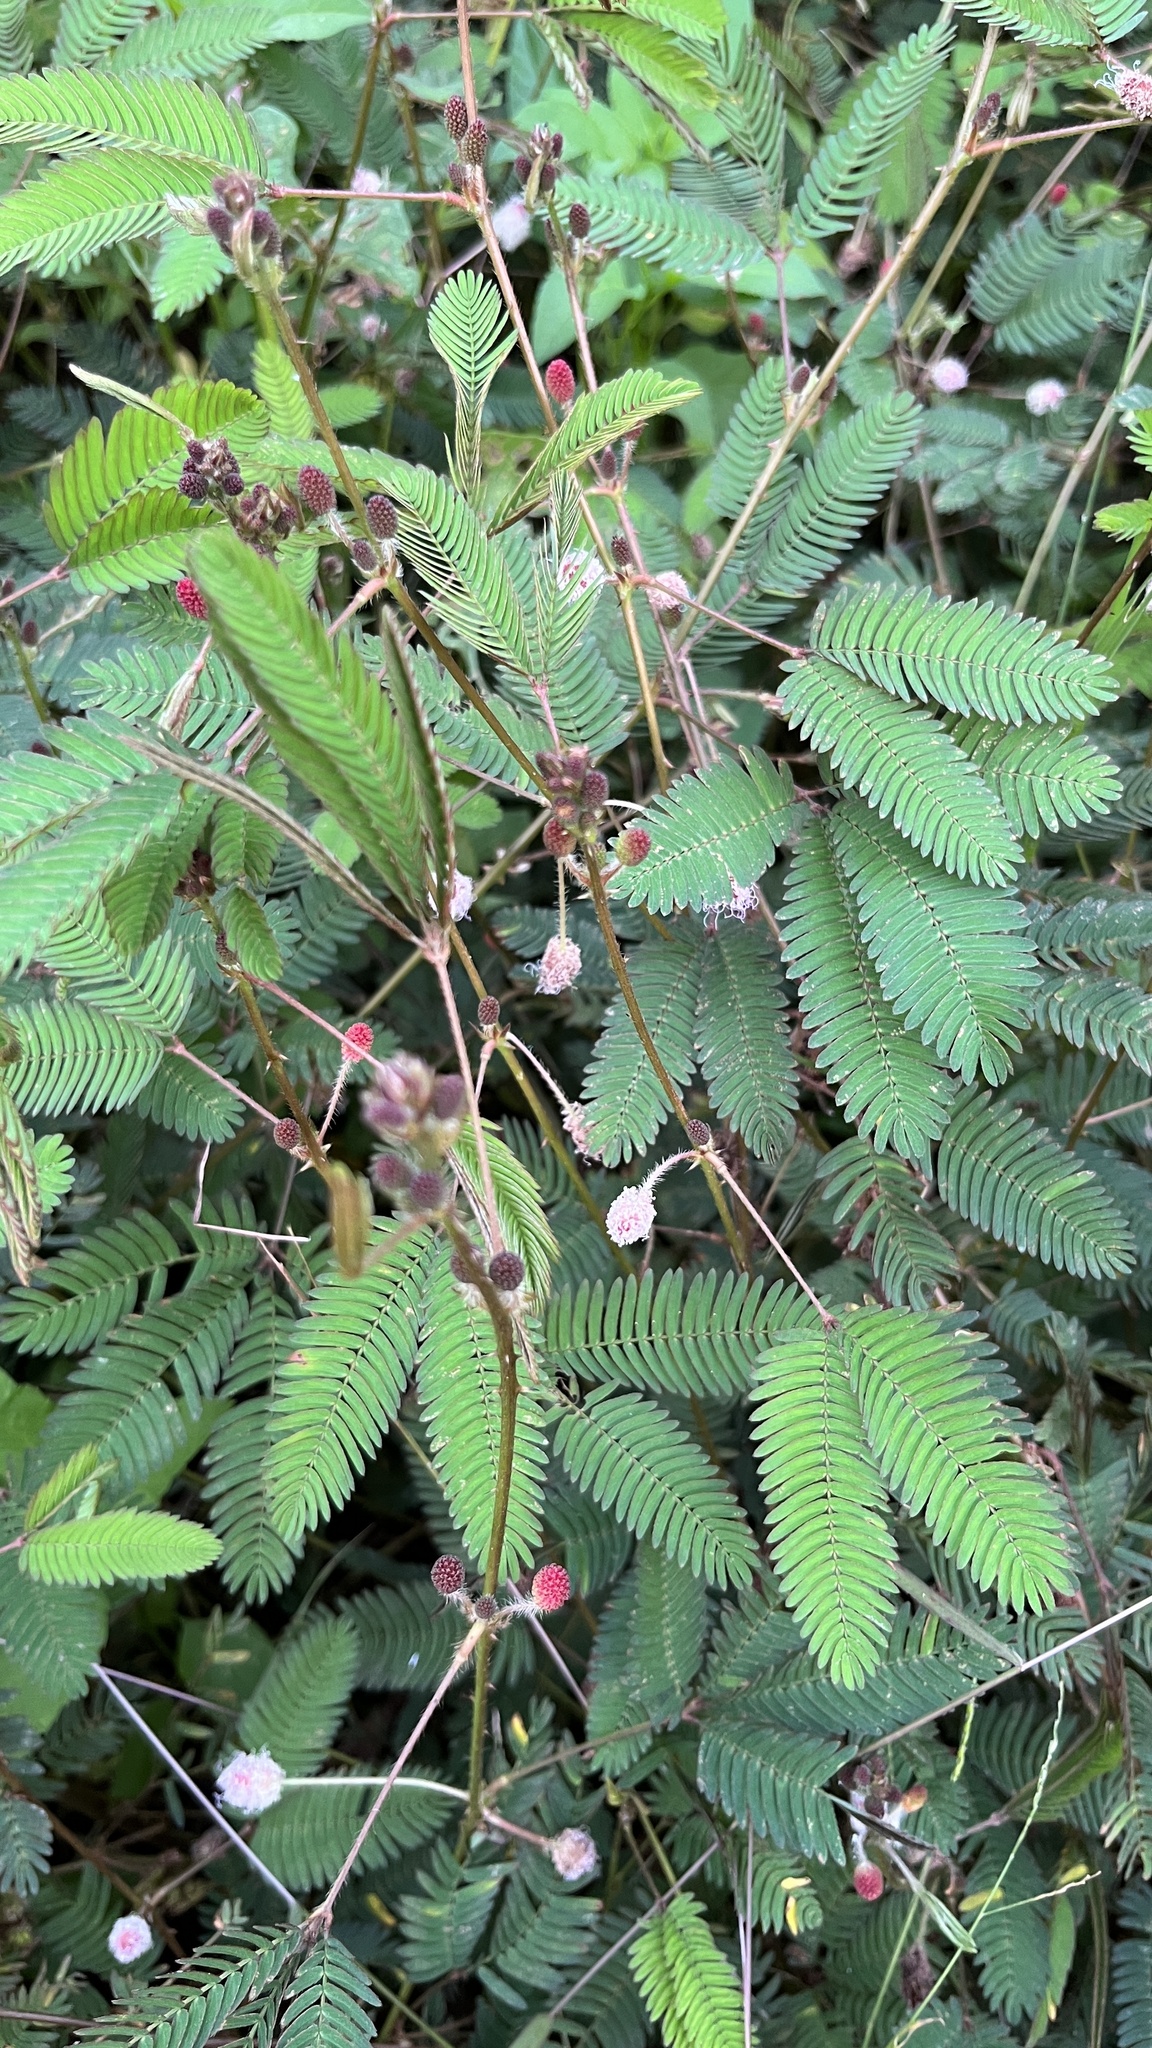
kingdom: Plantae
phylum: Tracheophyta
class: Magnoliopsida
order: Fabales
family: Fabaceae
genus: Mimosa
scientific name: Mimosa pudica
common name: Sensitive plant
